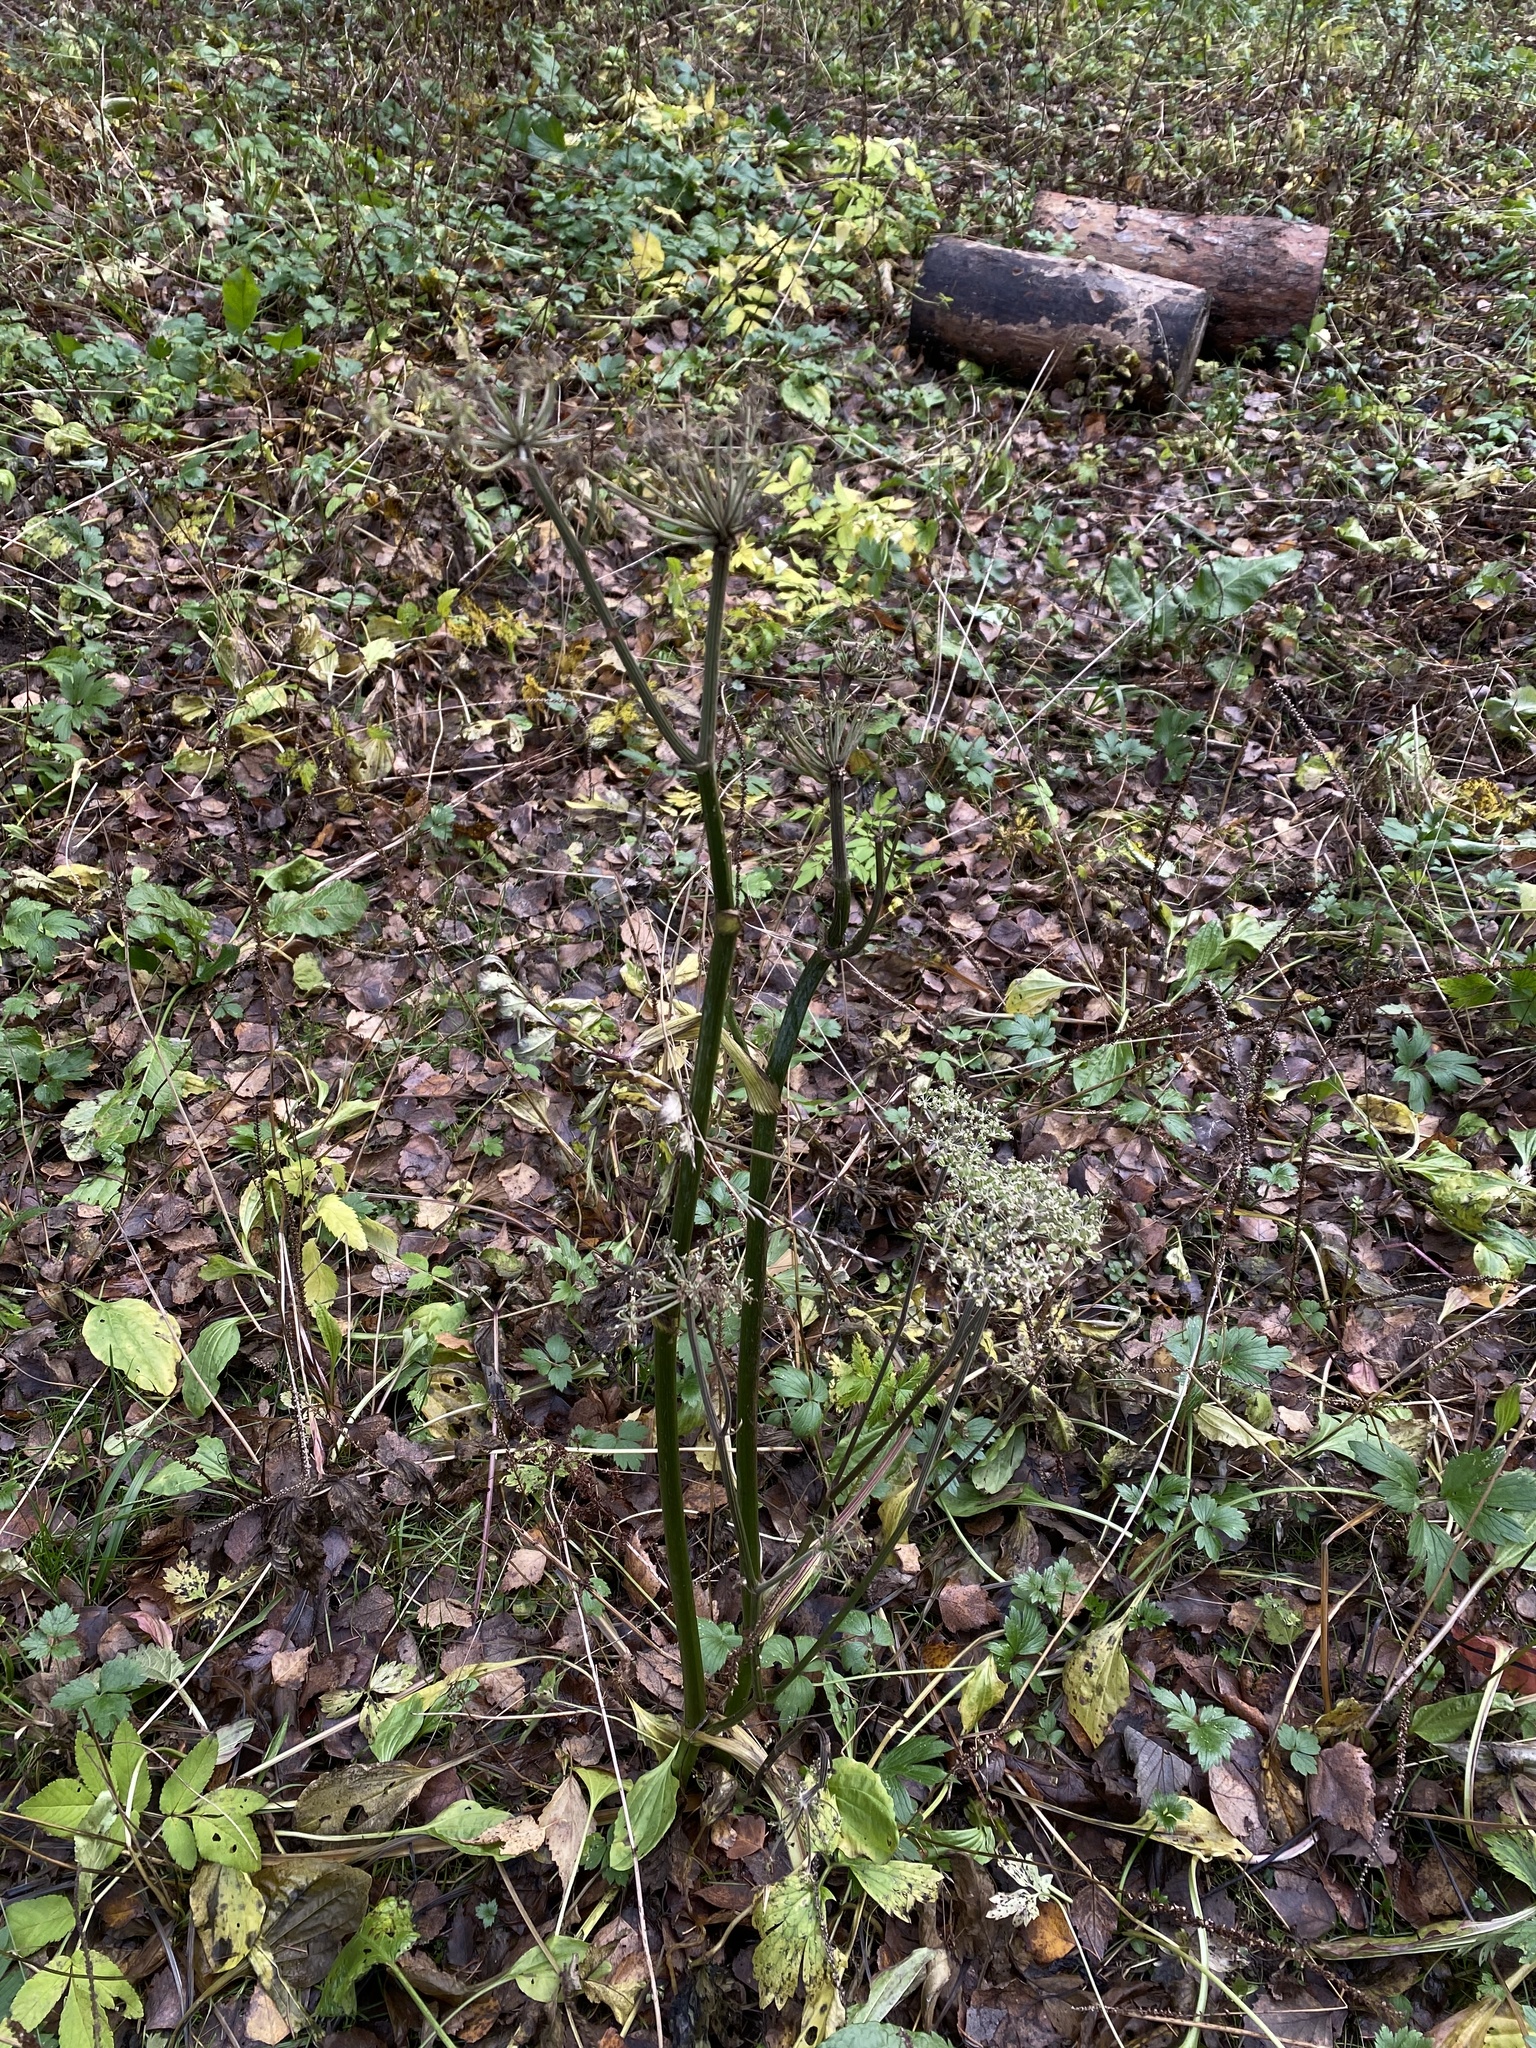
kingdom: Plantae
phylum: Tracheophyta
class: Magnoliopsida
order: Apiales
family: Apiaceae
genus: Angelica
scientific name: Angelica sylvestris
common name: Wild angelica
